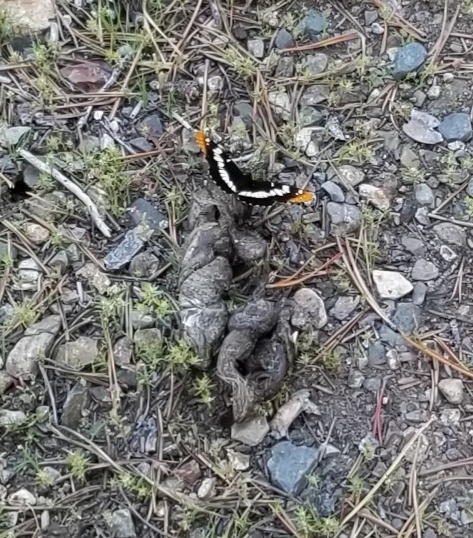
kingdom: Animalia
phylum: Arthropoda
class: Insecta
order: Lepidoptera
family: Nymphalidae
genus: Limenitis
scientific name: Limenitis lorquini
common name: Lorquin's admiral
